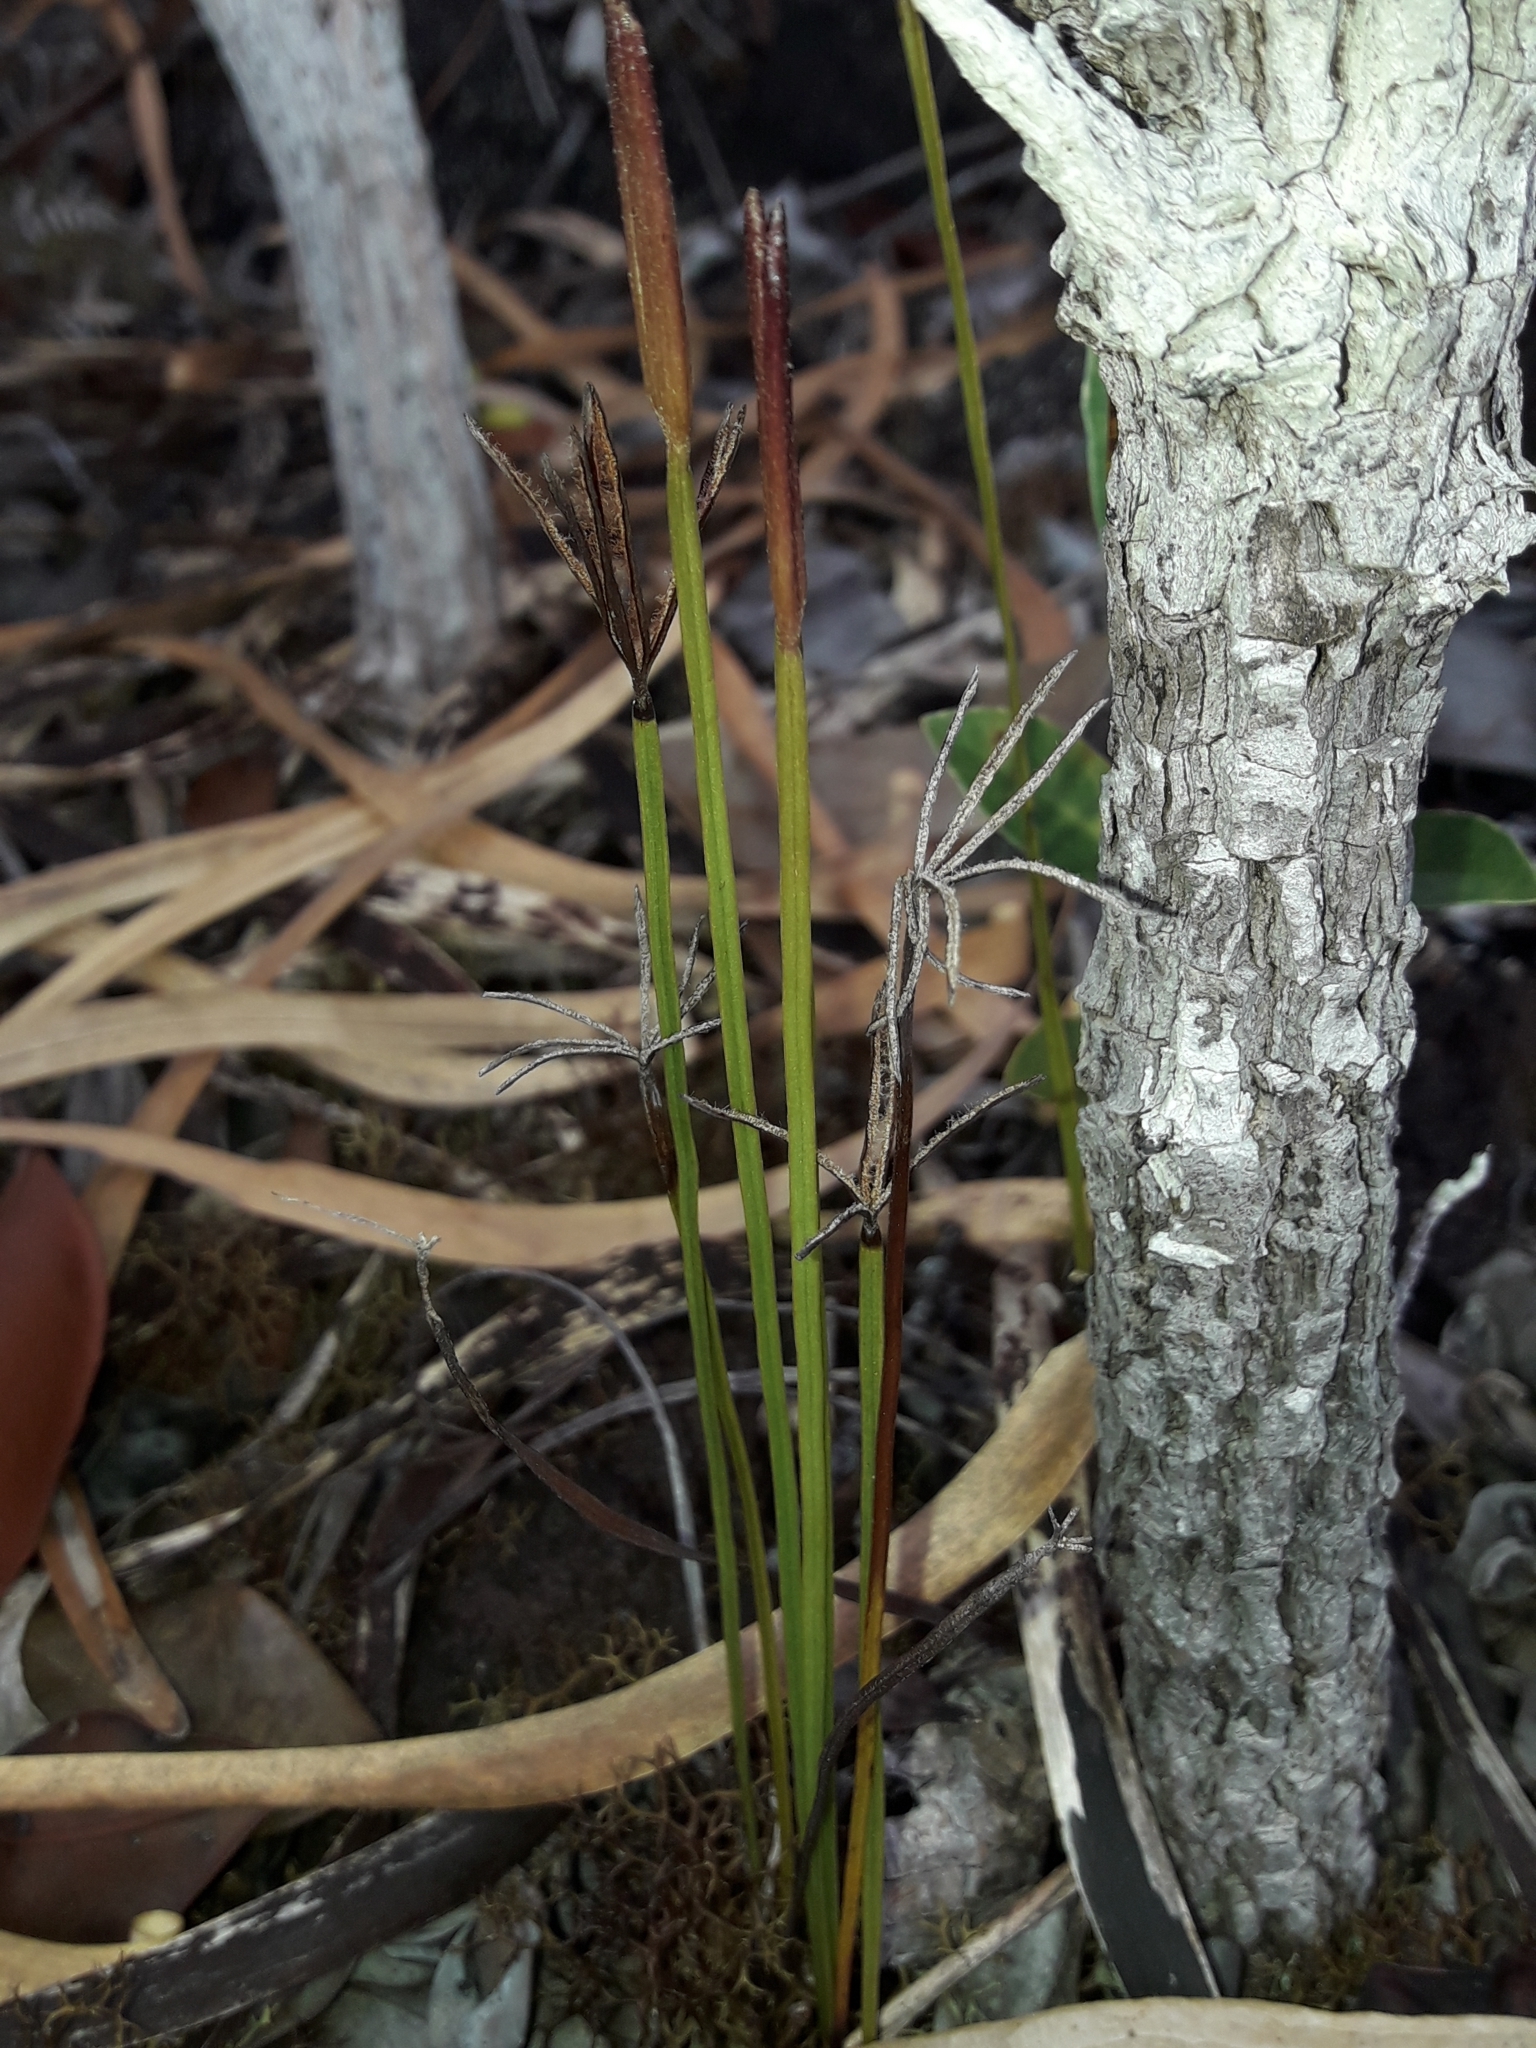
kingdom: Plantae
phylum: Tracheophyta
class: Polypodiopsida
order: Schizaeales
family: Schizaeaceae
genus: Actinostachys
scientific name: Actinostachys intermedia
